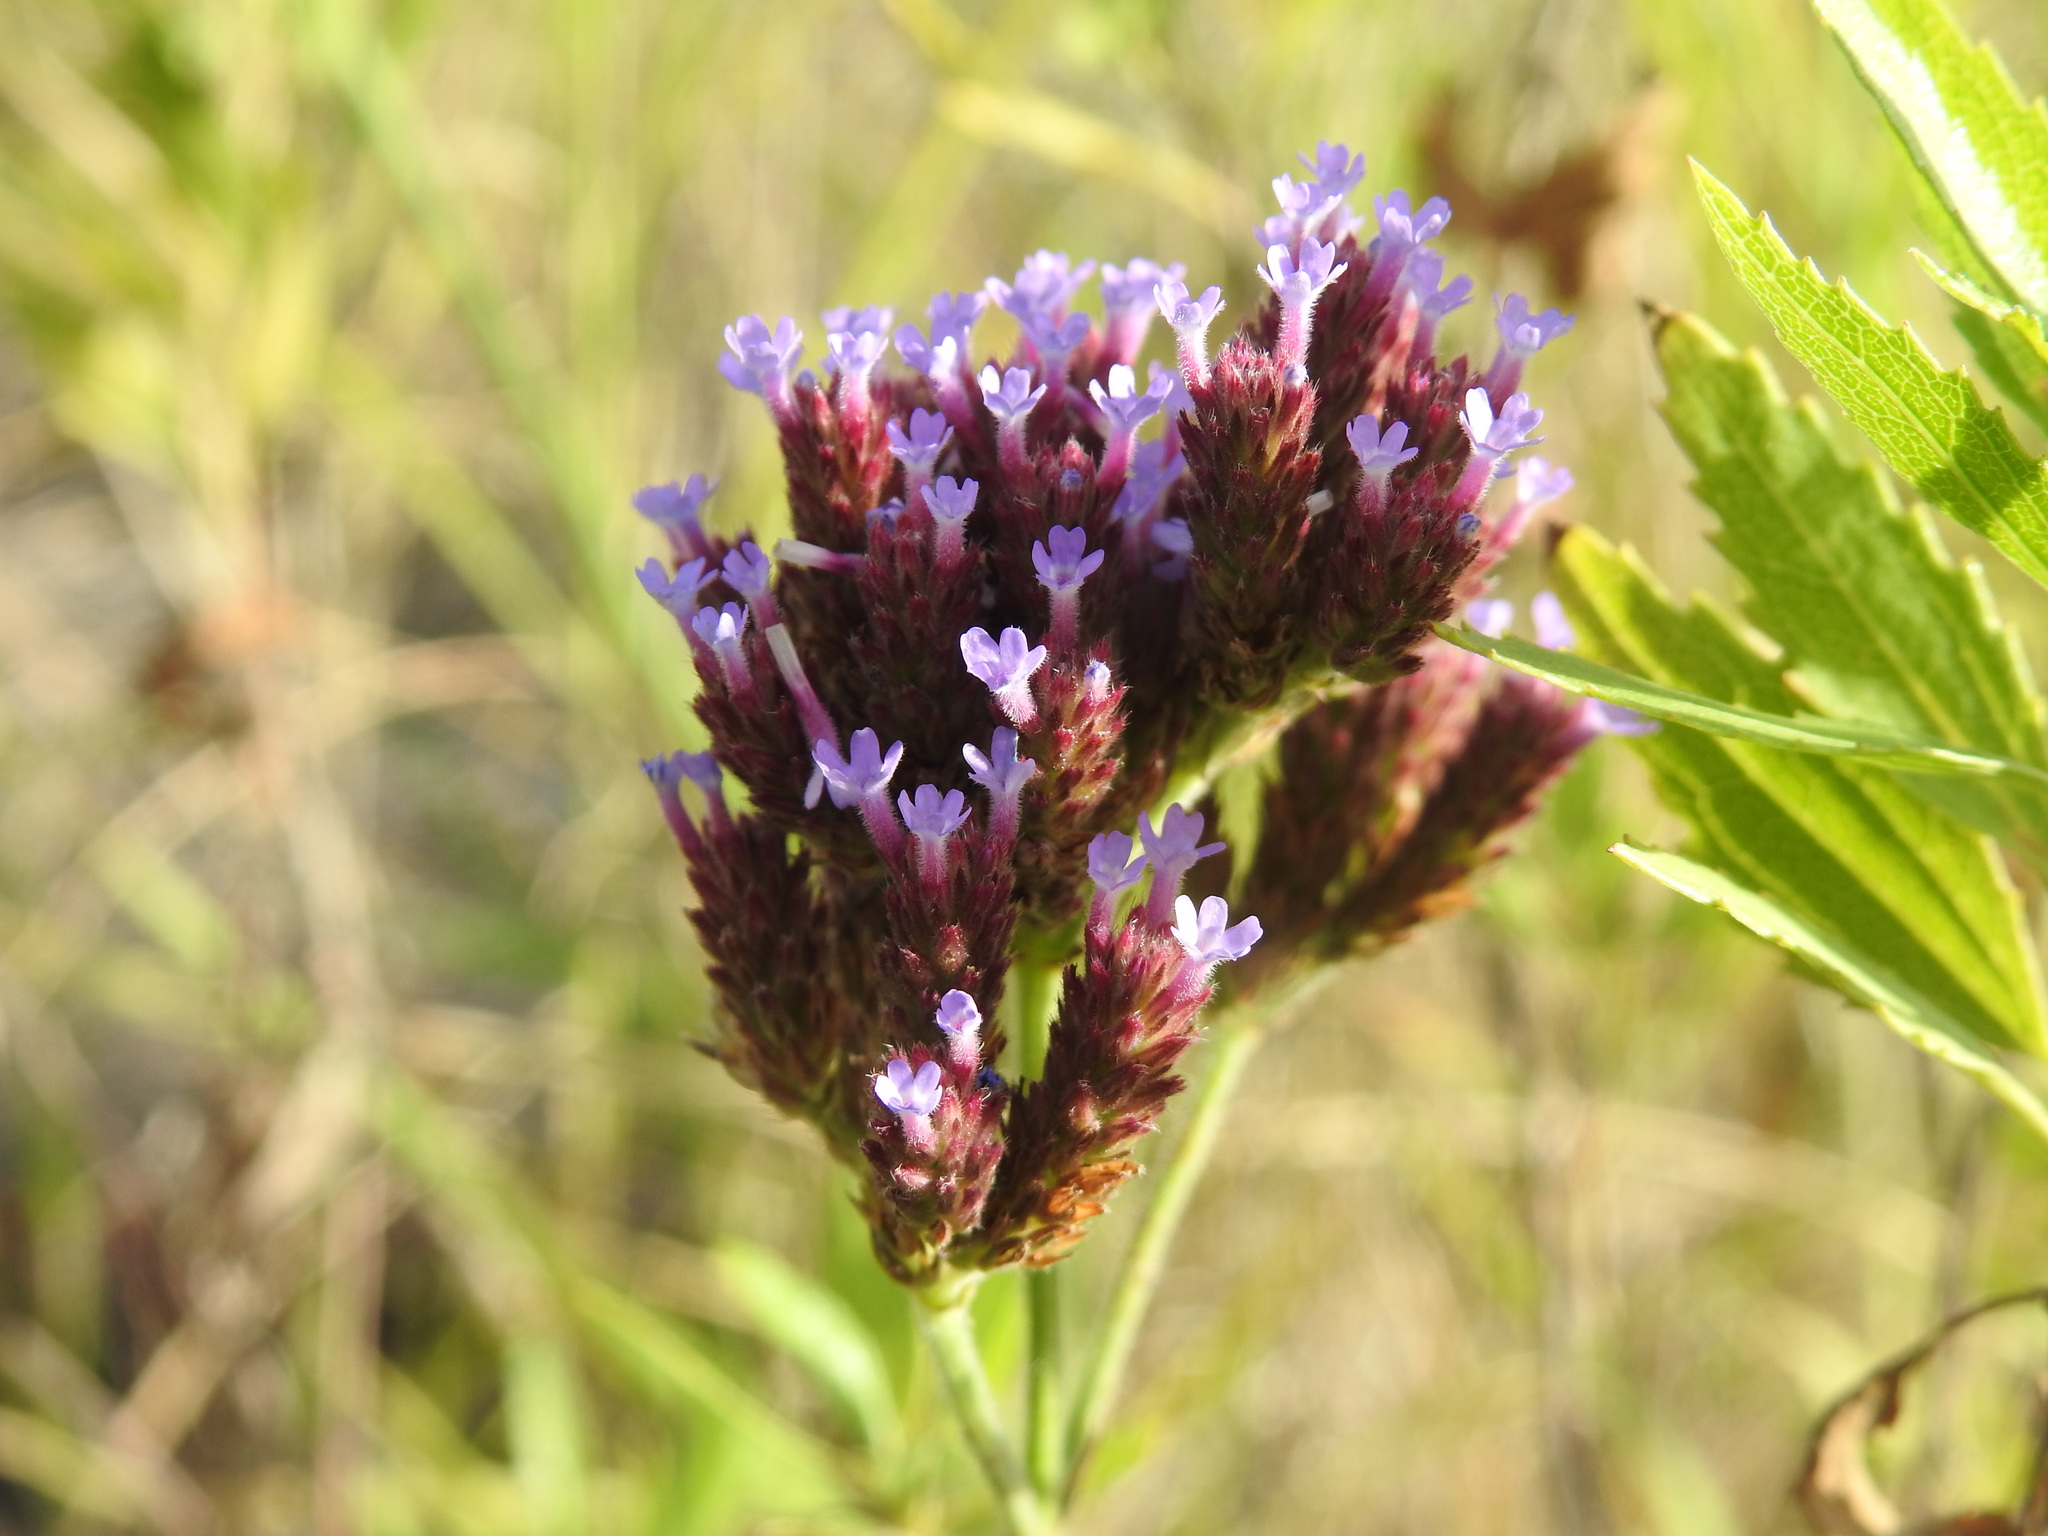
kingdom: Plantae
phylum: Tracheophyta
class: Magnoliopsida
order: Lamiales
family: Verbenaceae
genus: Verbena
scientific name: Verbena bonariensis
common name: Purpletop vervain
